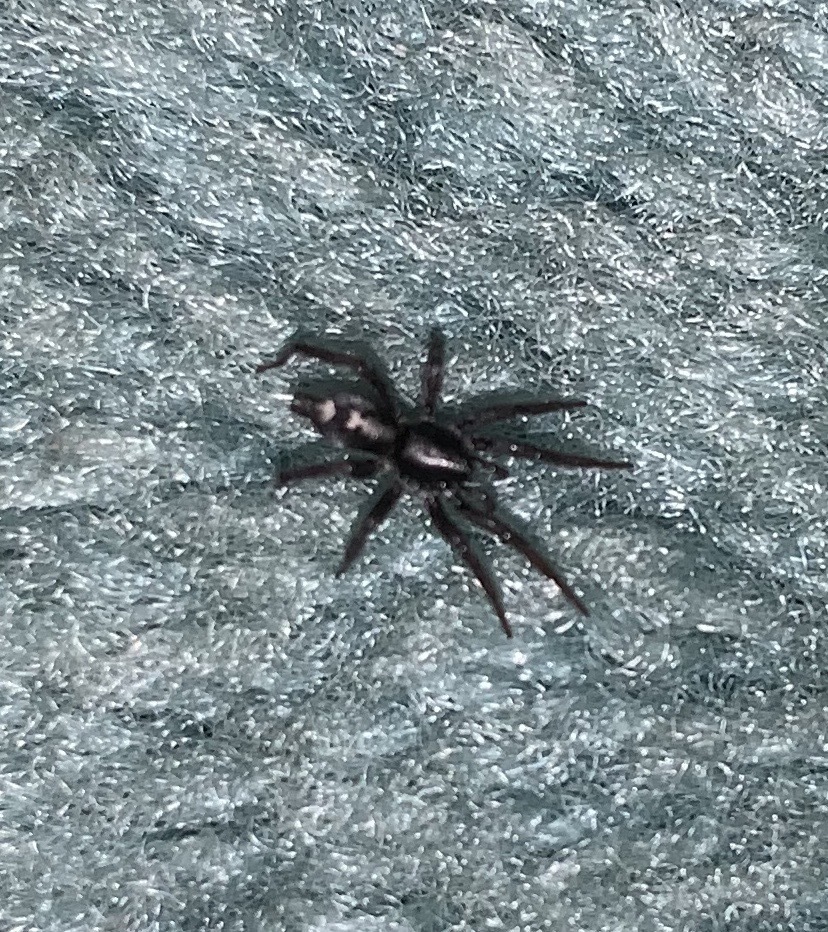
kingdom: Animalia
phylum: Arthropoda
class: Arachnida
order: Araneae
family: Gnaphosidae
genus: Herpyllus
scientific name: Herpyllus ecclesiasticus
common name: Eastern parson spider
